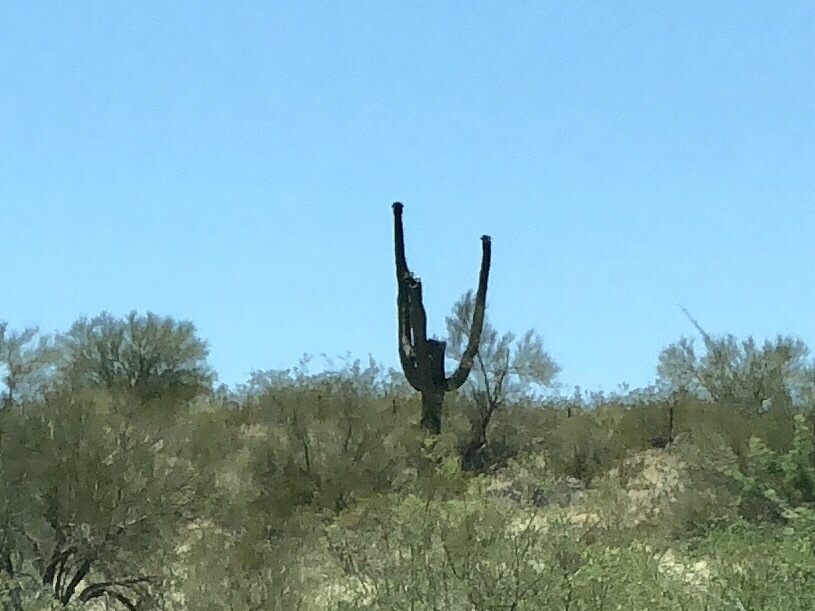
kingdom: Plantae
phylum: Tracheophyta
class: Magnoliopsida
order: Caryophyllales
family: Cactaceae
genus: Carnegiea
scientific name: Carnegiea gigantea
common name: Saguaro
